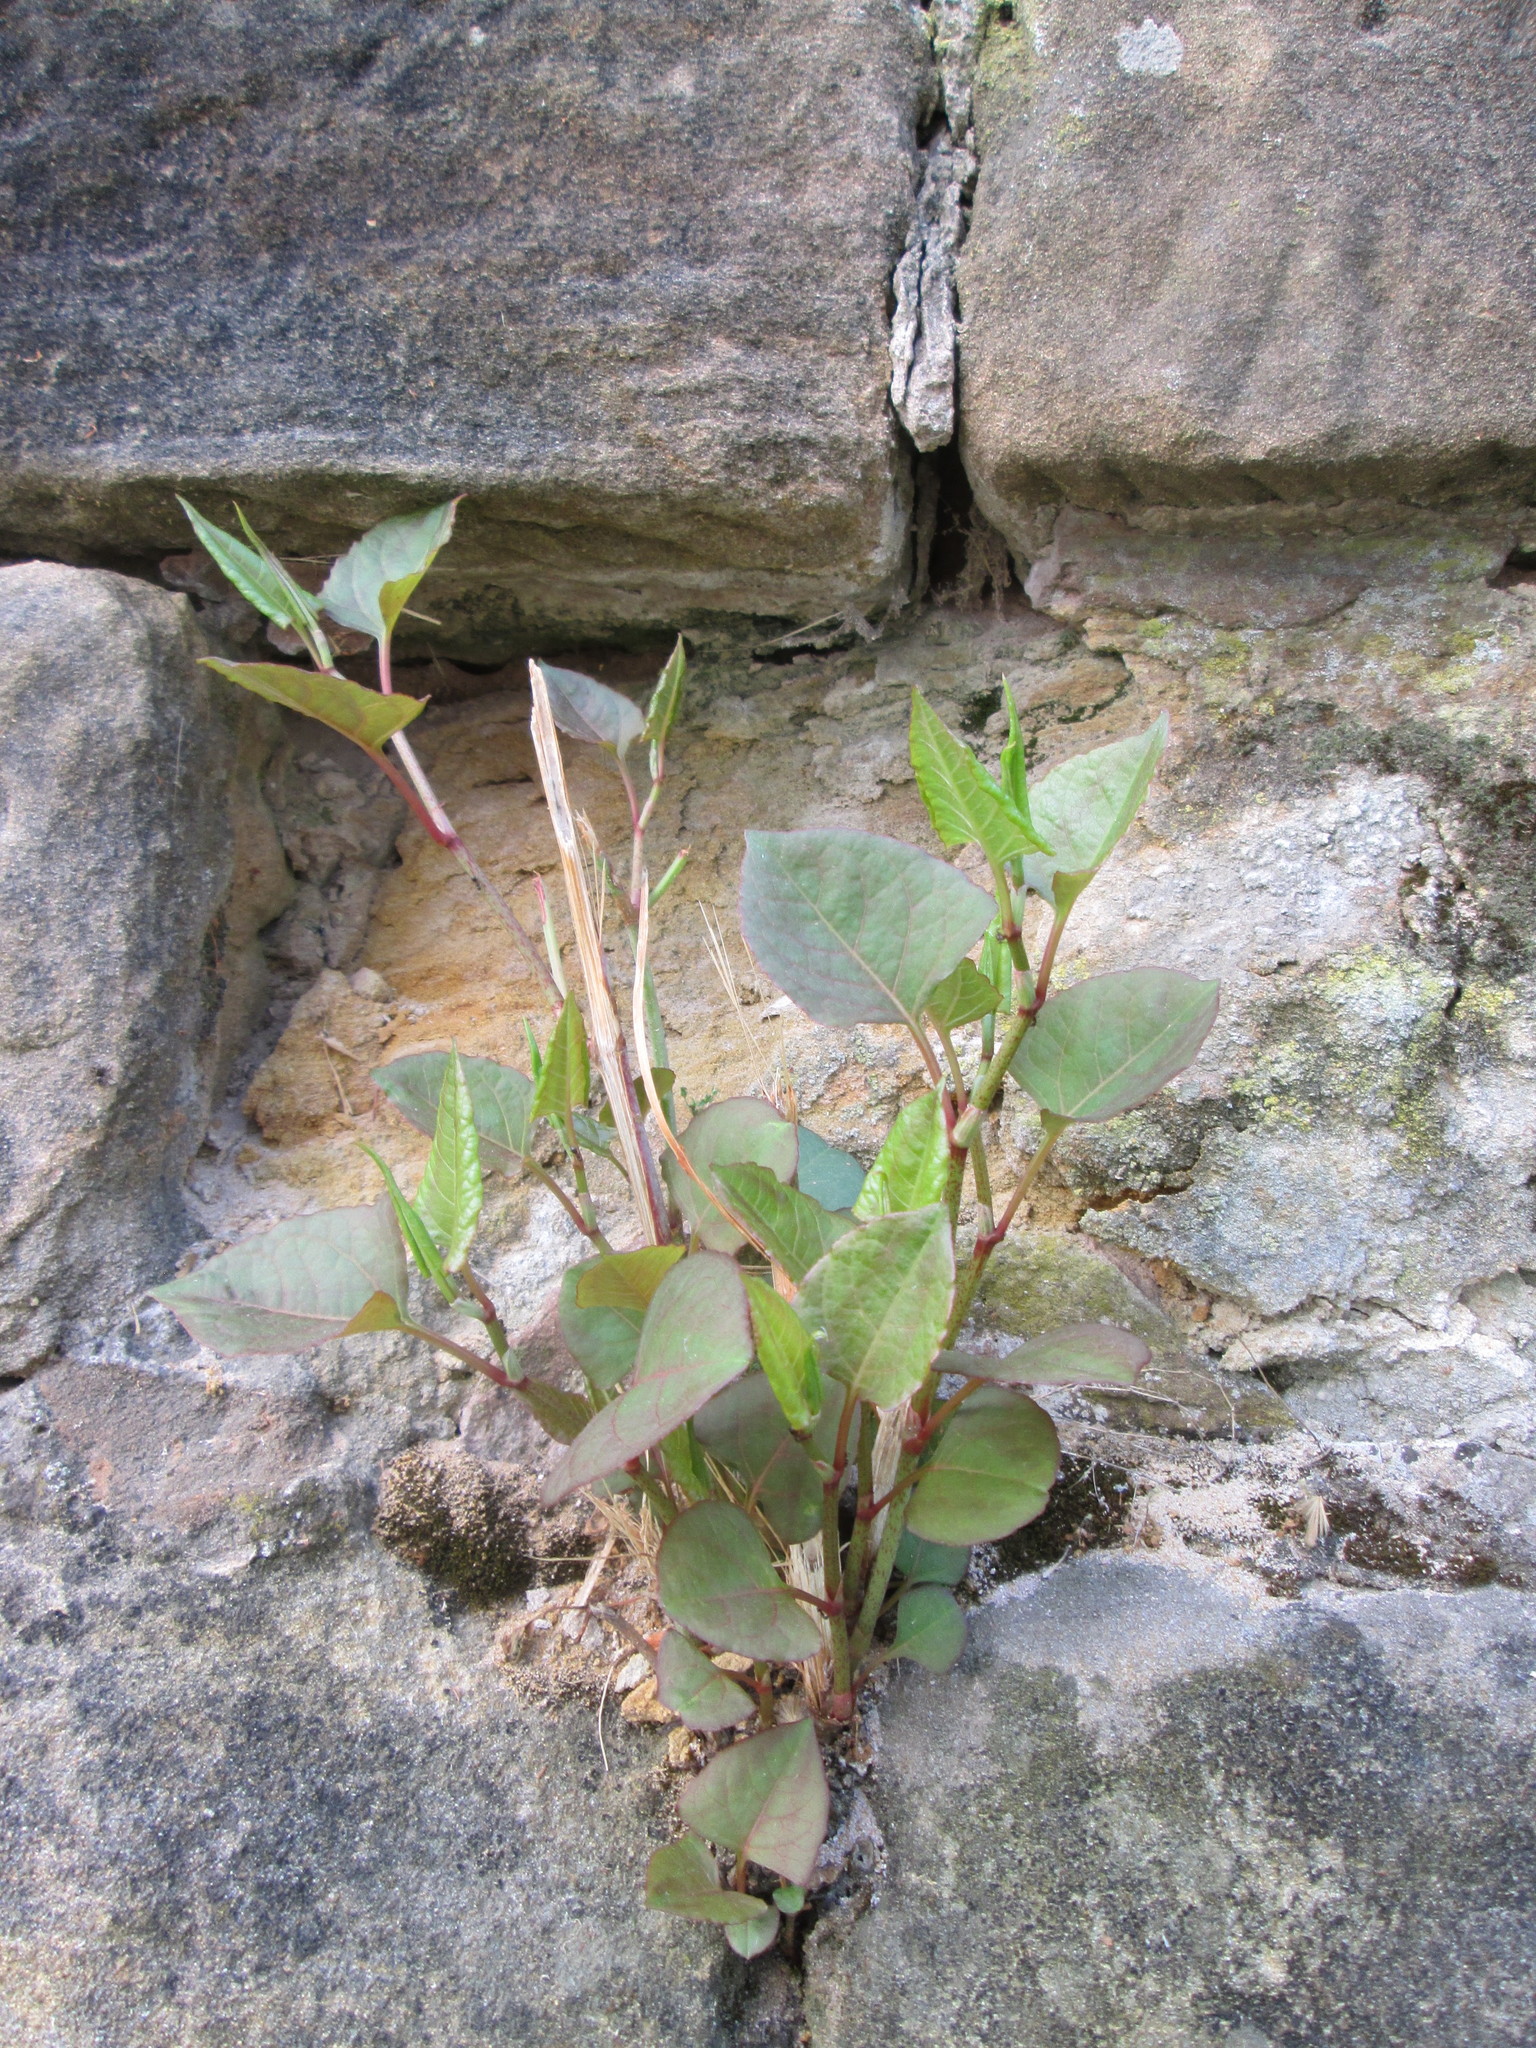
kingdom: Plantae
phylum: Tracheophyta
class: Magnoliopsida
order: Caryophyllales
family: Polygonaceae
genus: Reynoutria
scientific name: Reynoutria japonica
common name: Japanese knotweed
